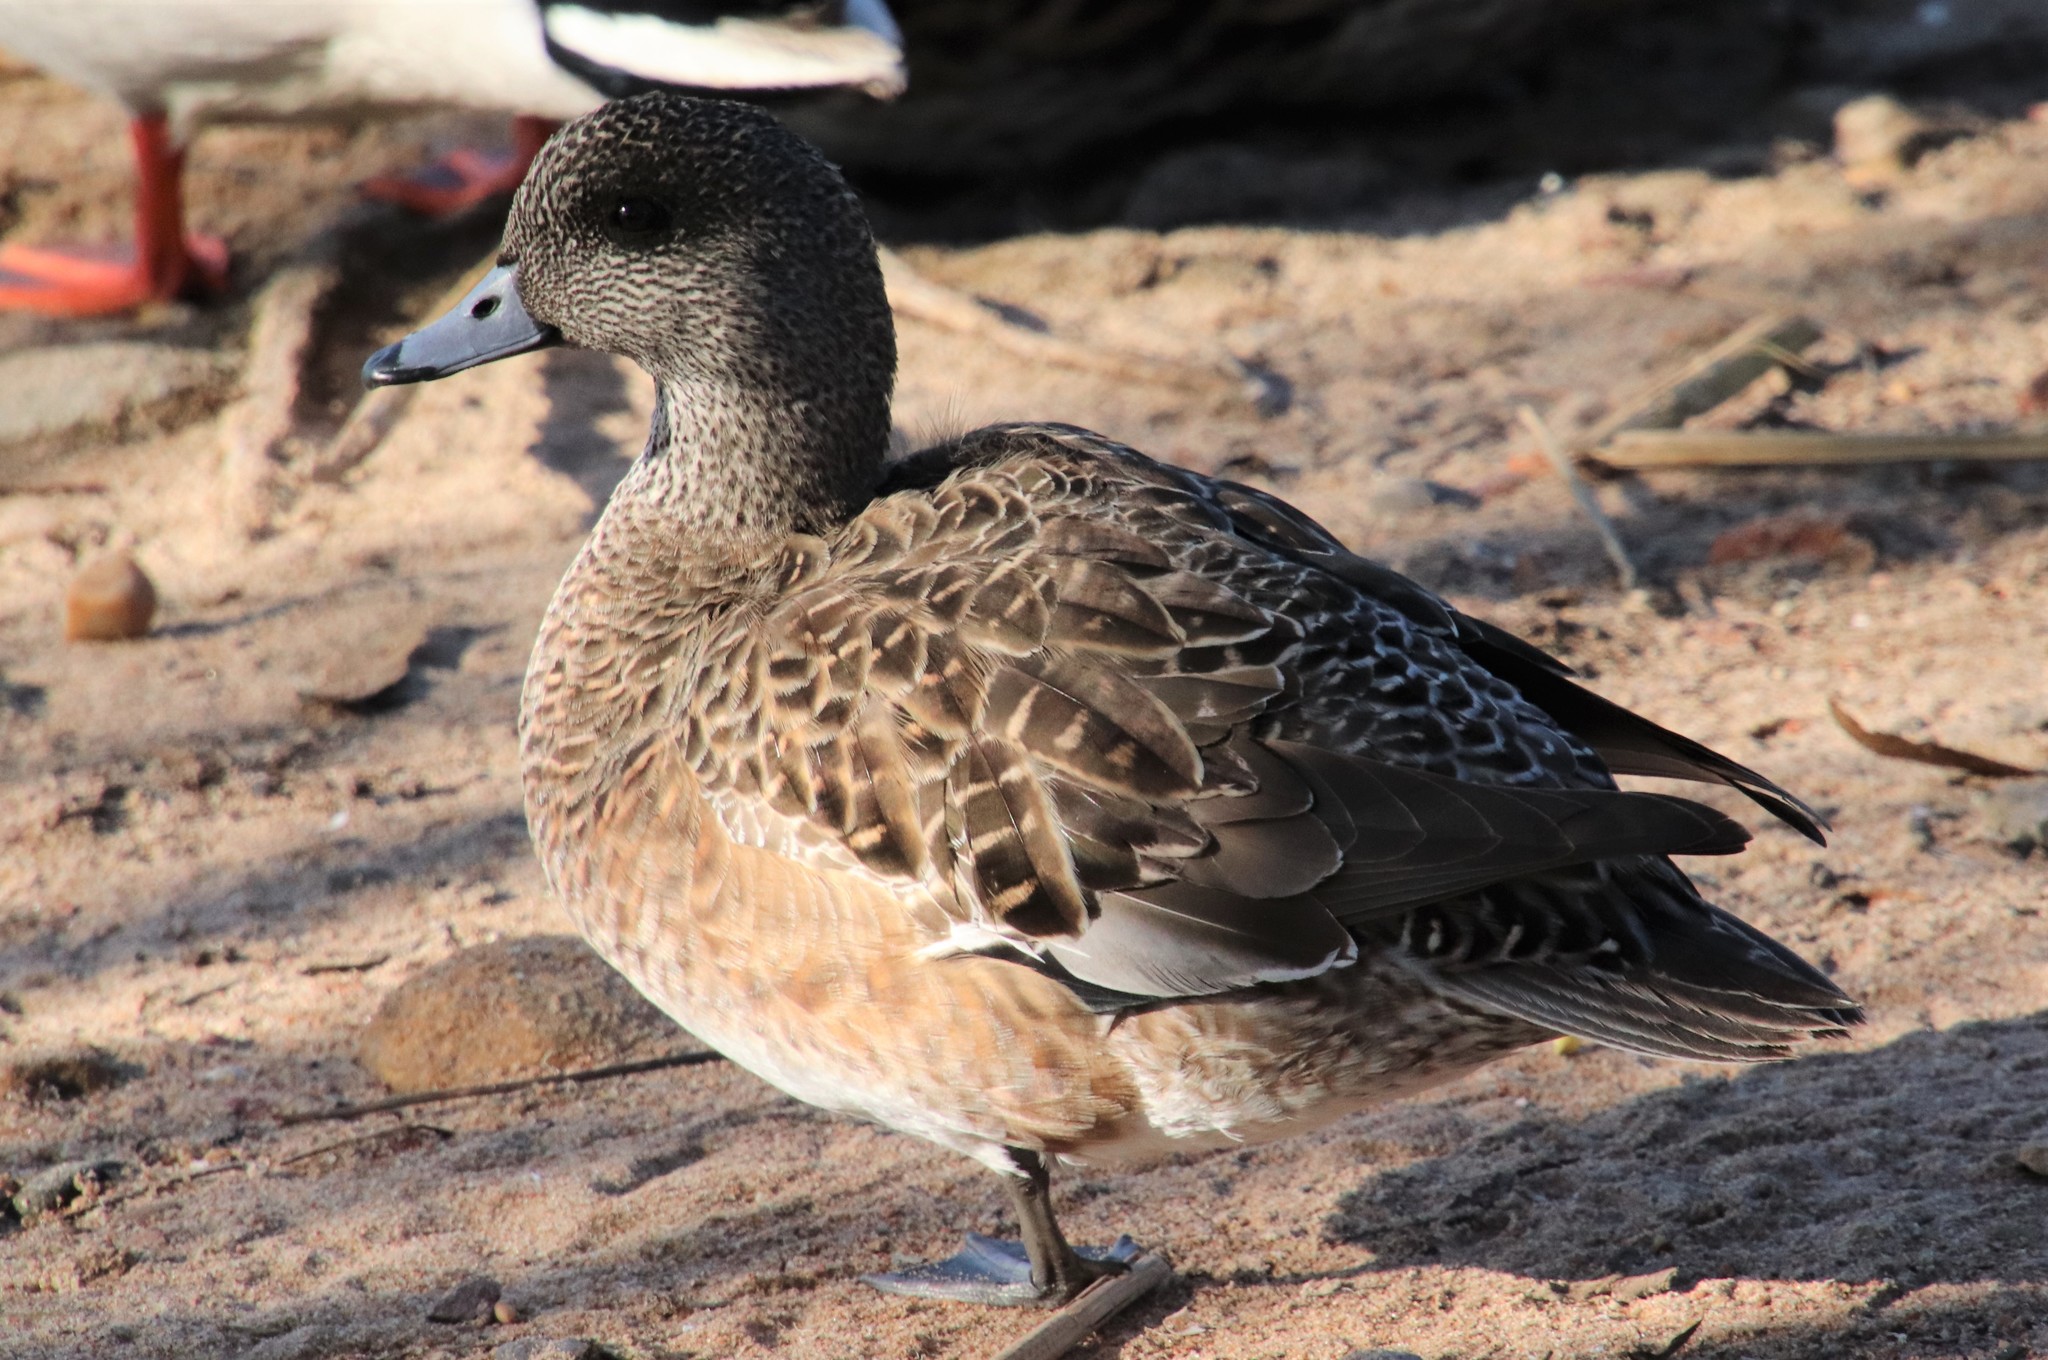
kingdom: Animalia
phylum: Chordata
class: Aves
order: Anseriformes
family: Anatidae
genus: Mareca
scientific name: Mareca americana
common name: American wigeon
